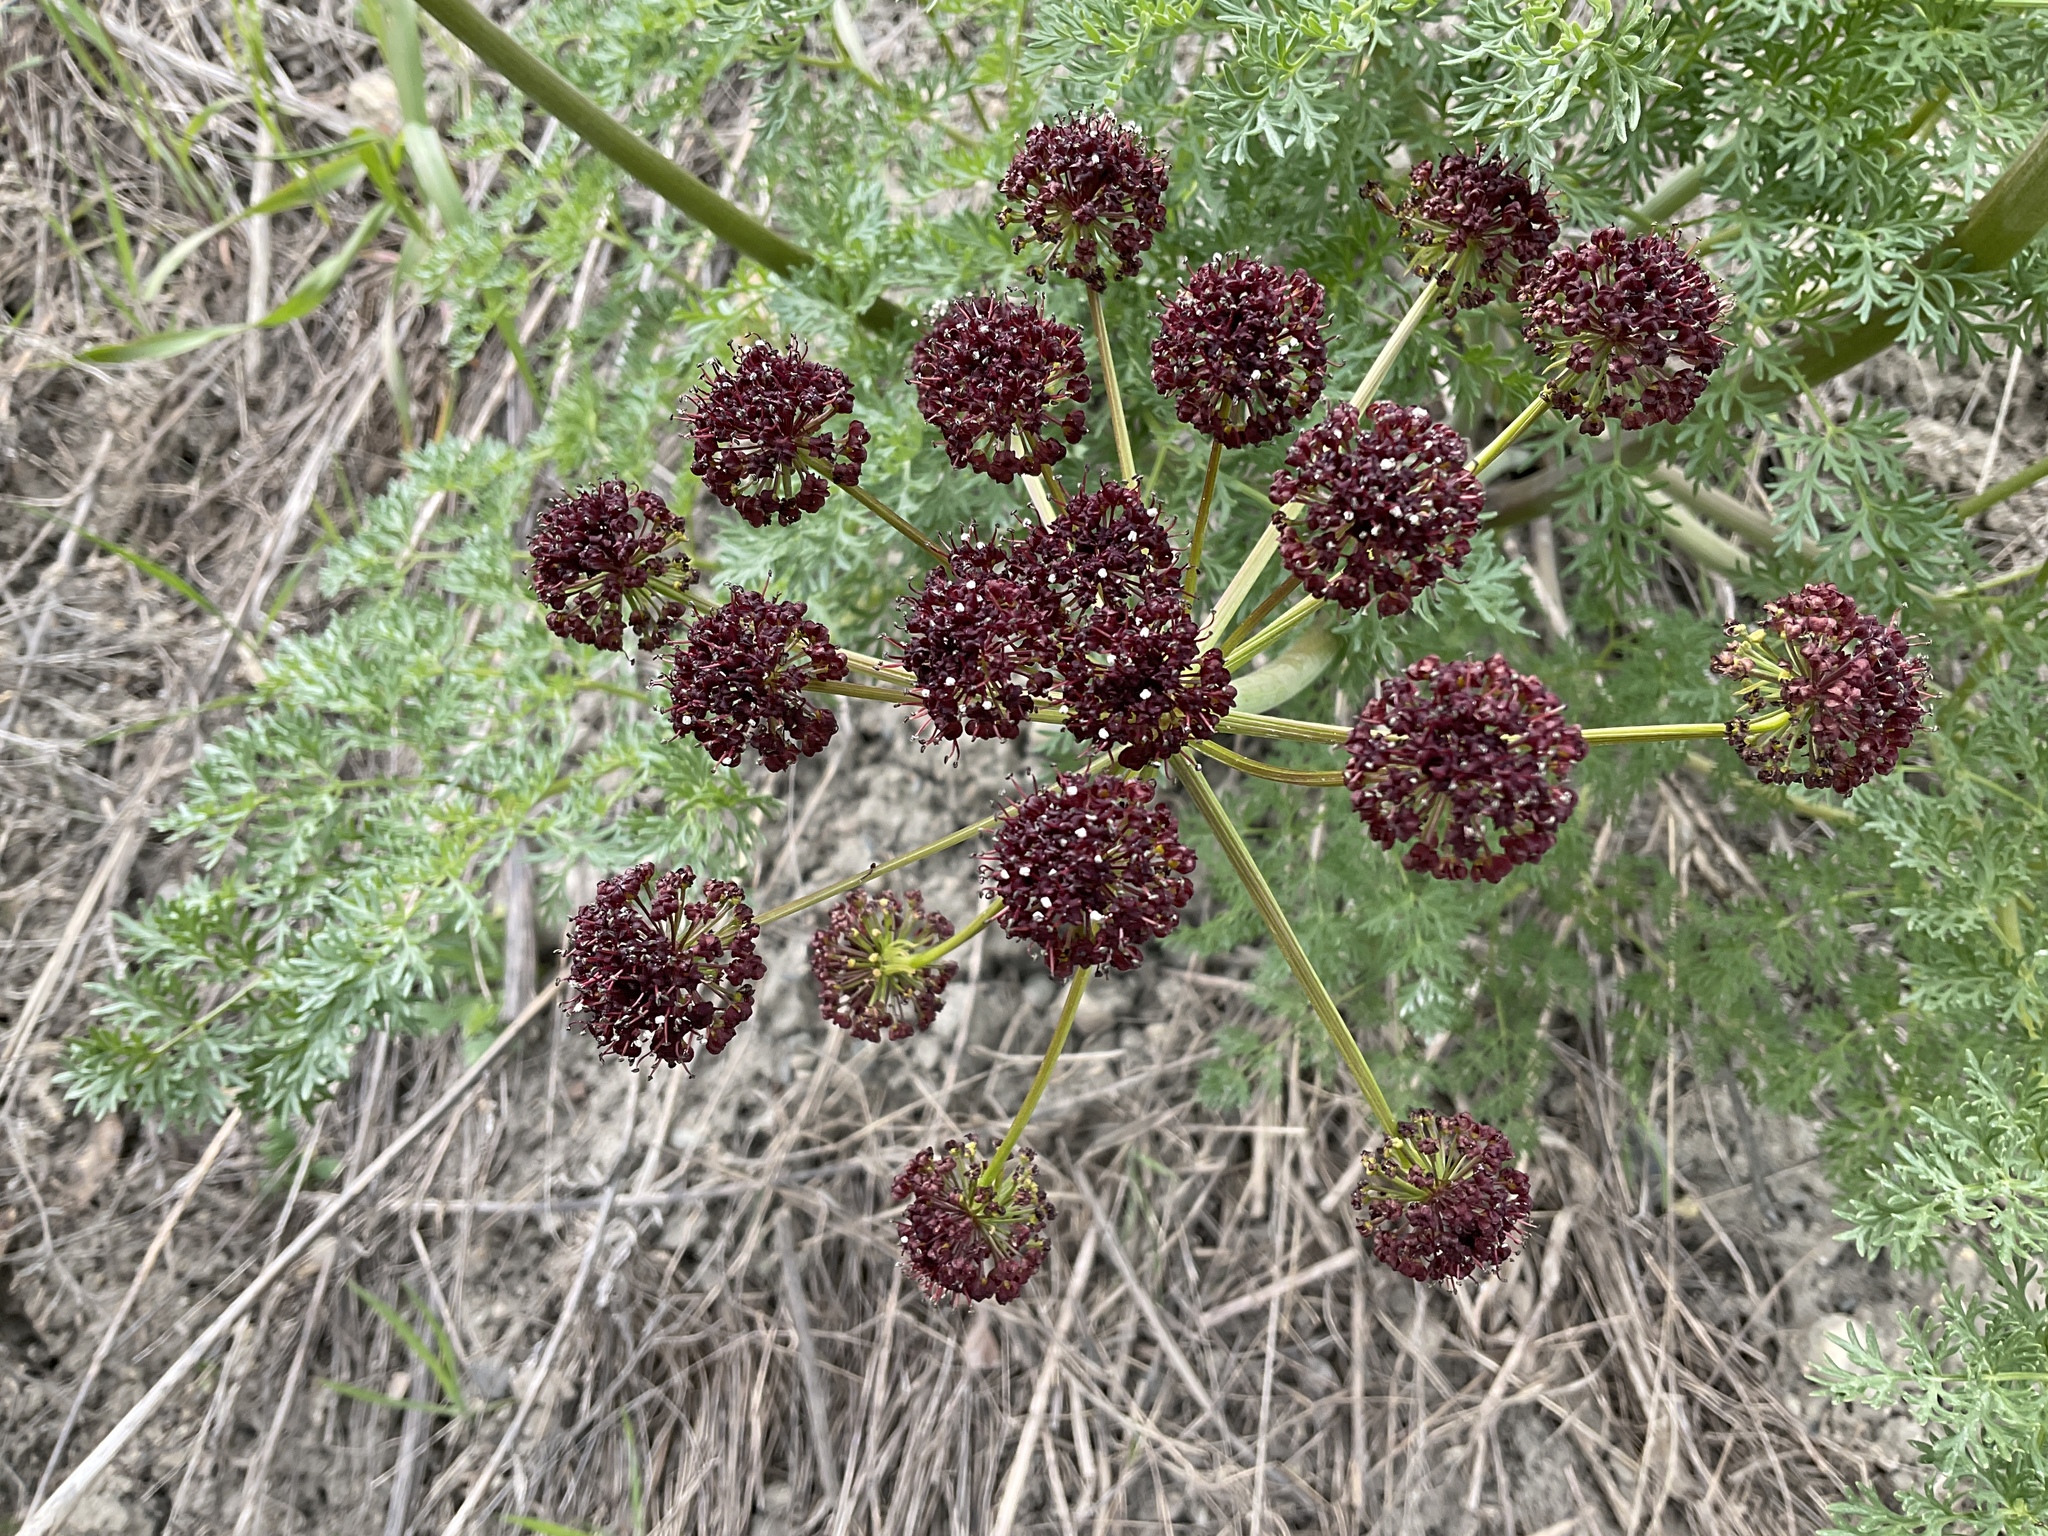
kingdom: Plantae
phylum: Tracheophyta
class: Magnoliopsida
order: Apiales
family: Apiaceae
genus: Lomatium
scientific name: Lomatium multifidum
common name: Carrot-leaved biscuitroot
